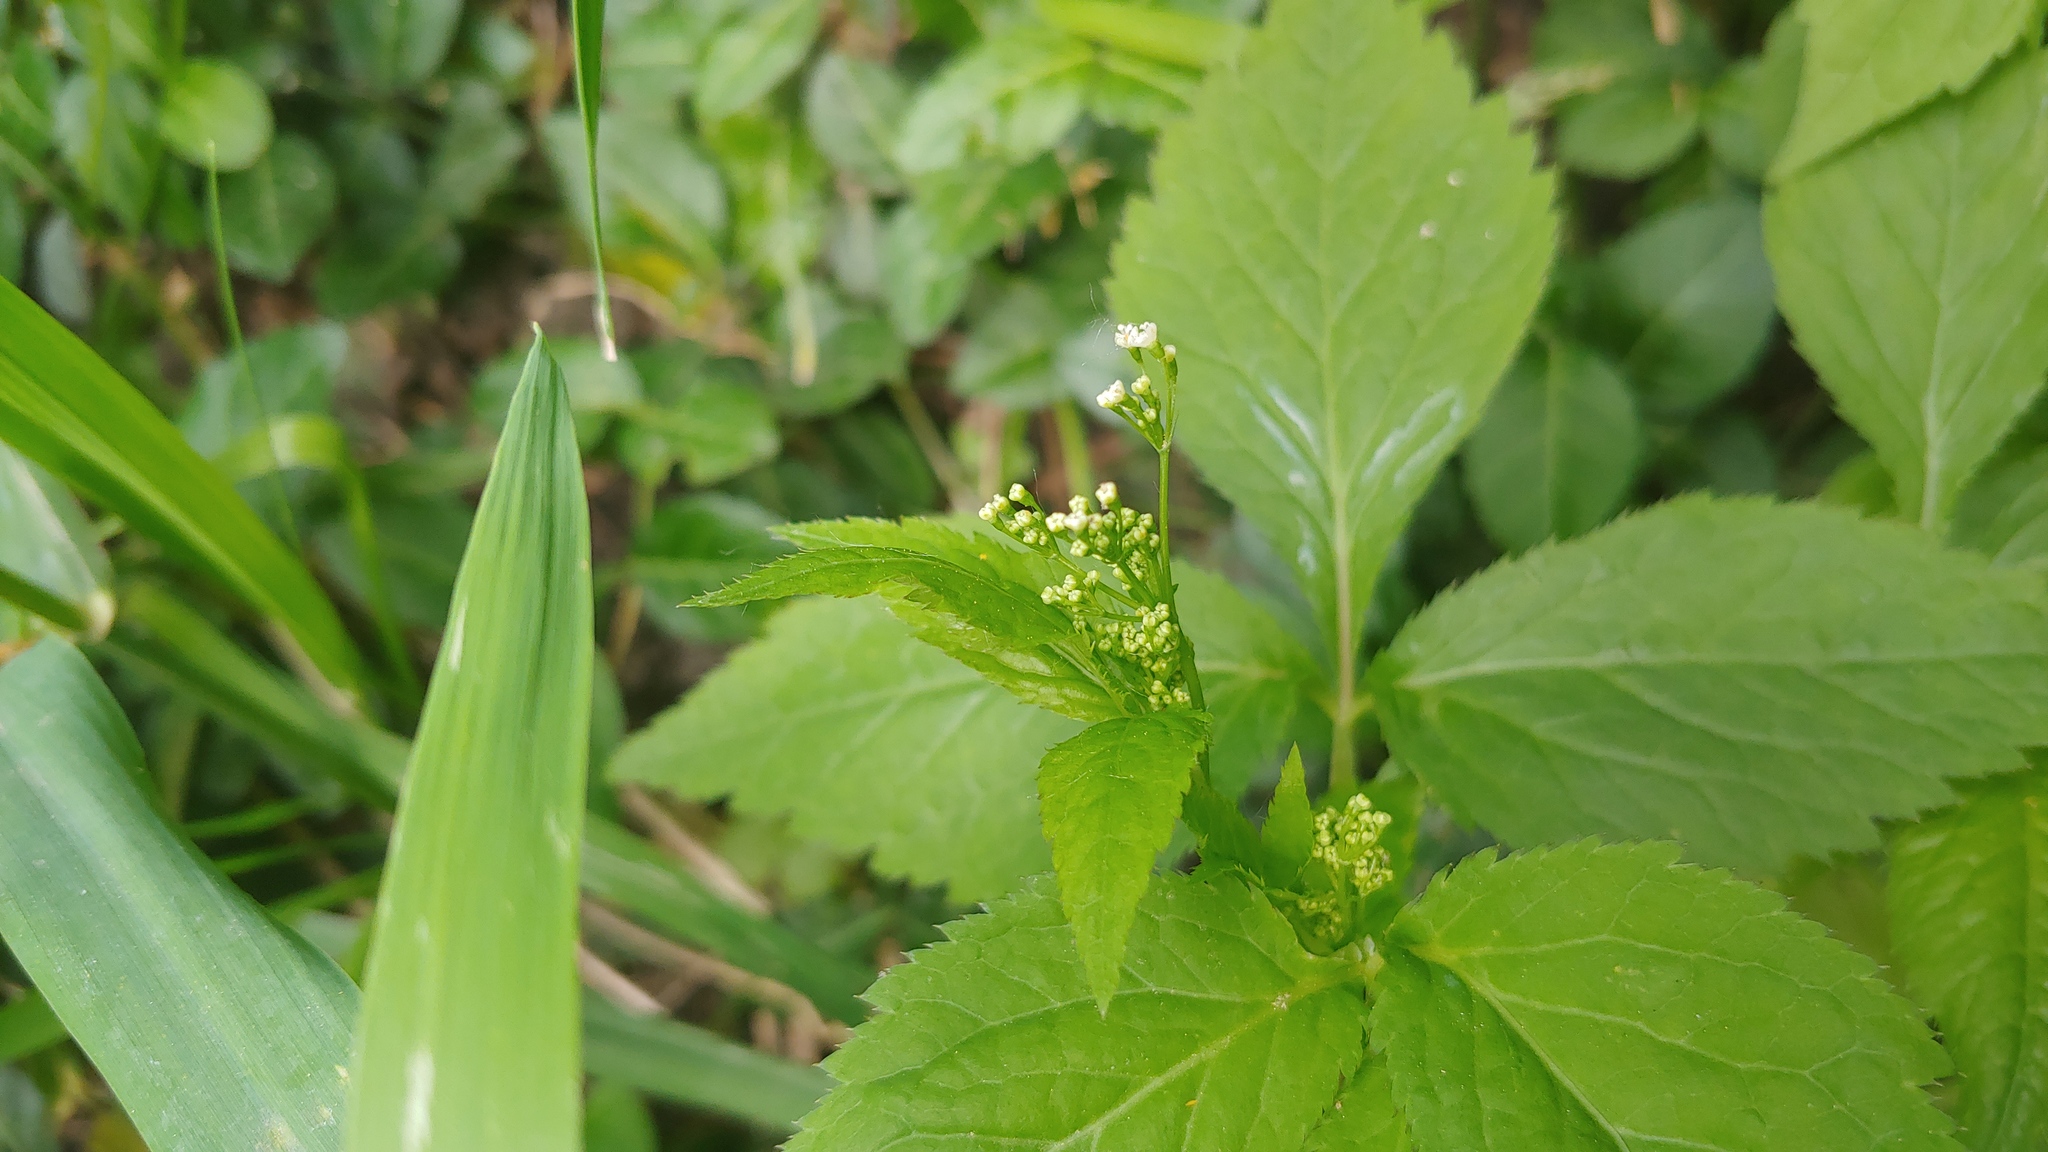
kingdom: Plantae
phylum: Tracheophyta
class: Magnoliopsida
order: Apiales
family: Apiaceae
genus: Cryptotaenia
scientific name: Cryptotaenia canadensis
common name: Honewort
